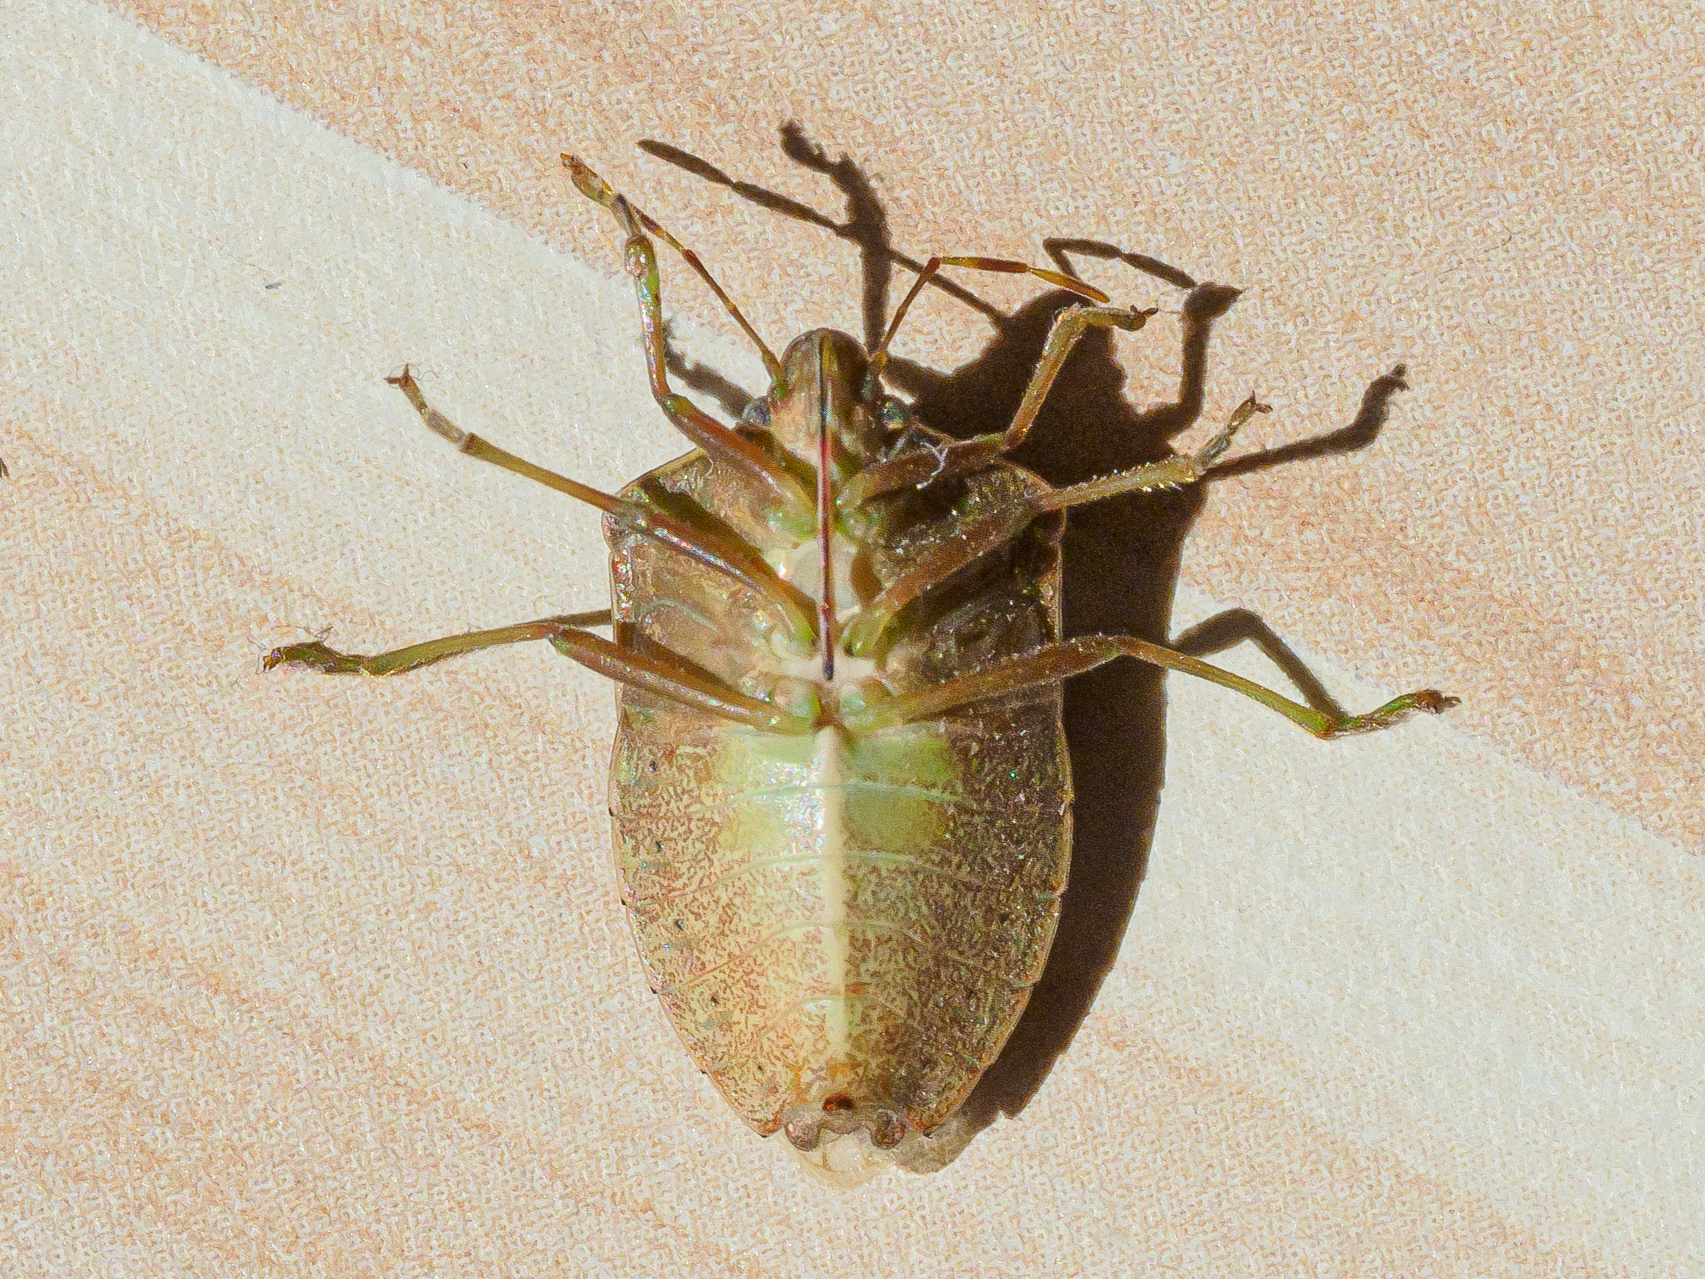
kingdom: Animalia
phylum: Arthropoda
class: Insecta
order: Hemiptera
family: Pentatomidae
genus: Nezara
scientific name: Nezara viridula
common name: Southern green stink bug
